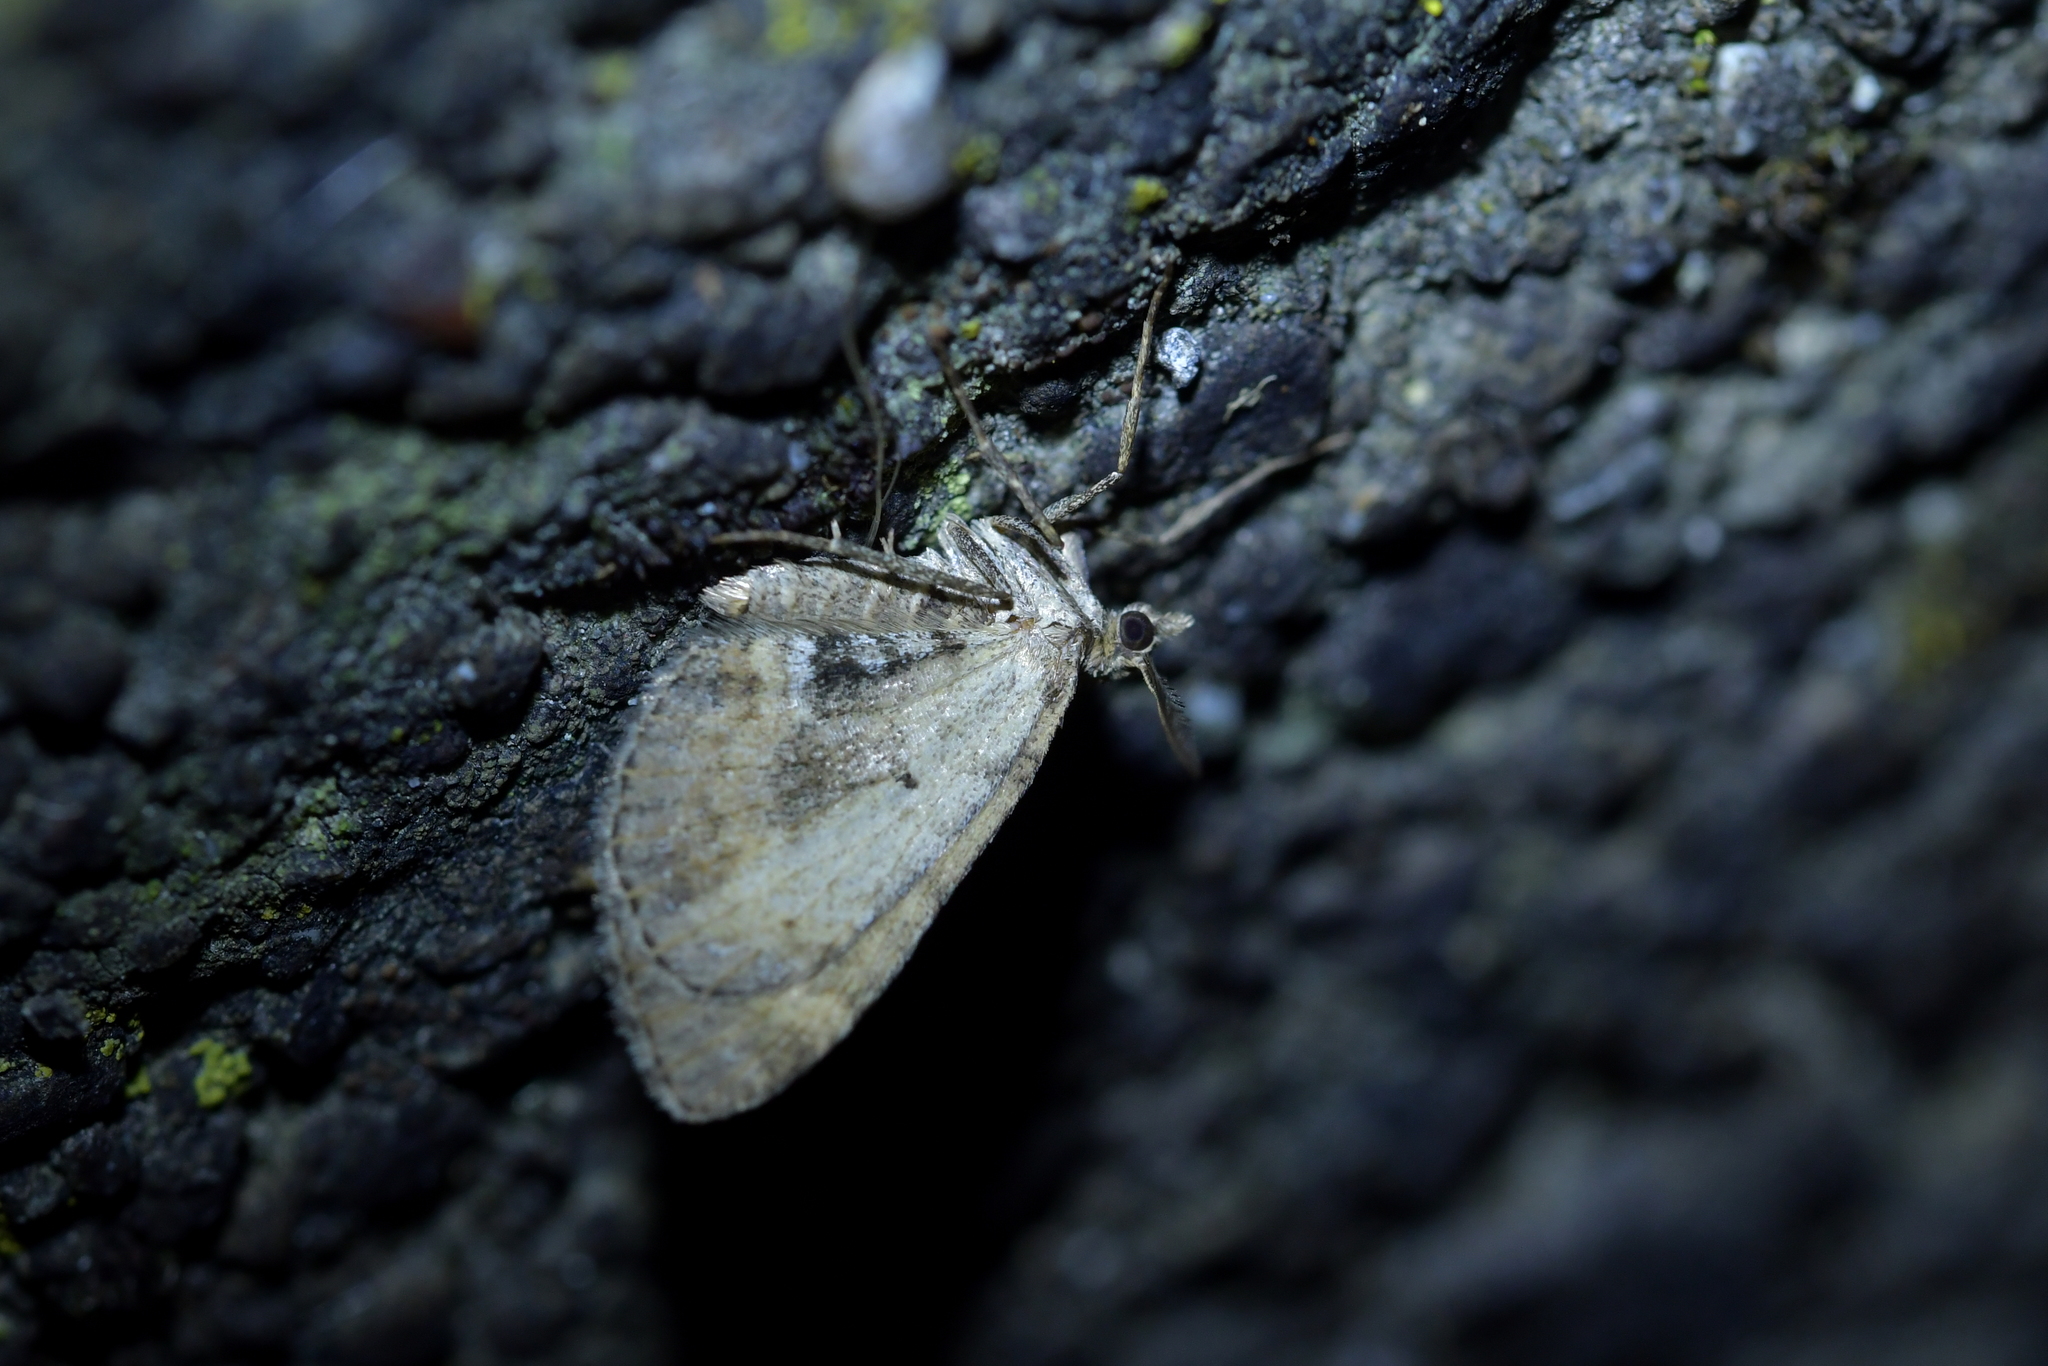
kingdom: Animalia
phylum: Arthropoda
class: Insecta
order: Lepidoptera
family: Geometridae
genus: Asaphodes
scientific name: Asaphodes aegrota
